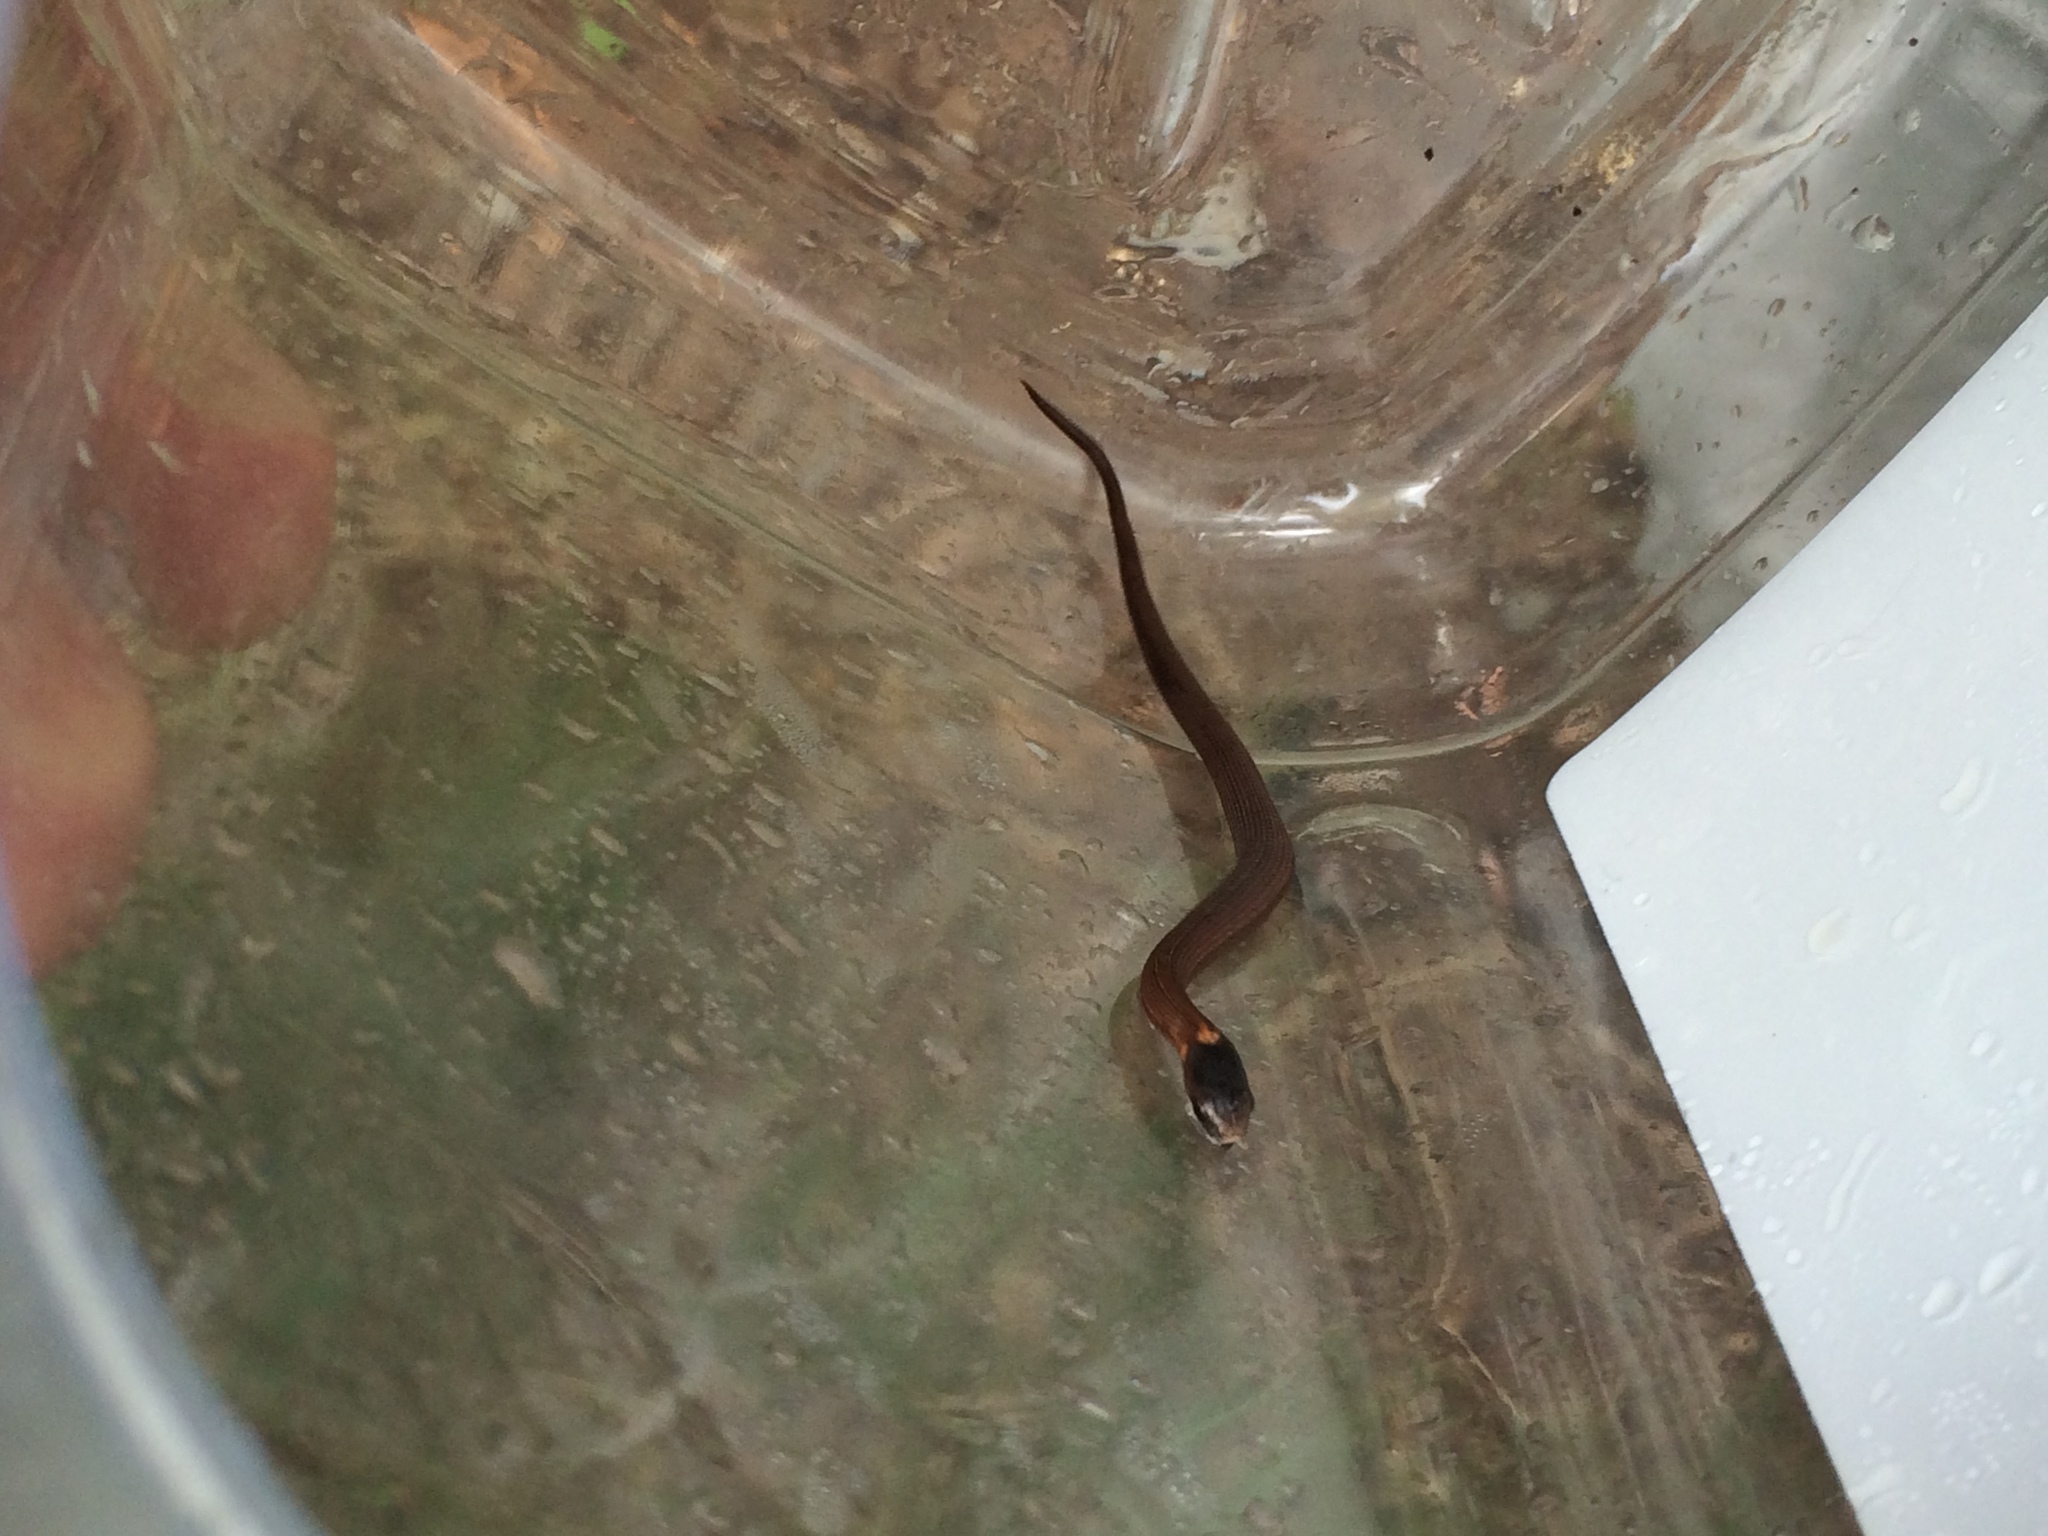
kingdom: Animalia
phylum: Chordata
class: Squamata
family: Colubridae
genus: Storeria
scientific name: Storeria occipitomaculata
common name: Redbelly snake
